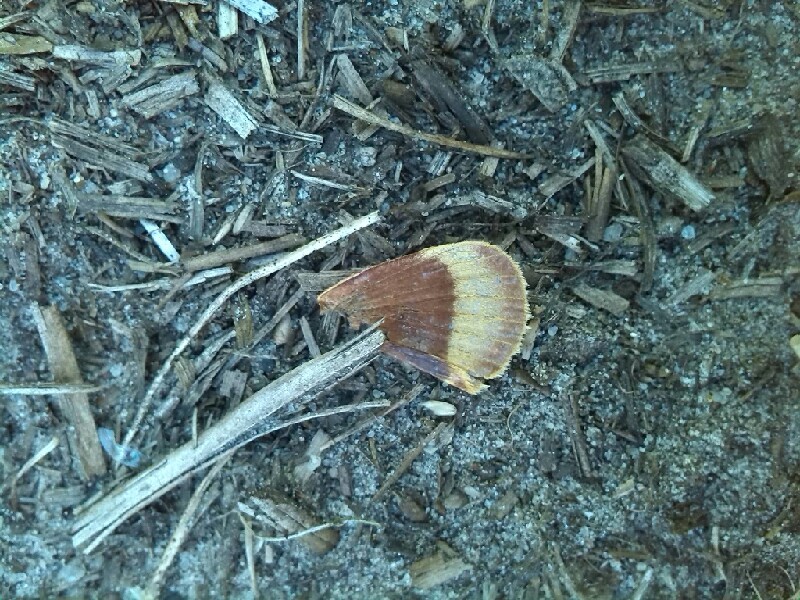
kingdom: Animalia
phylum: Arthropoda
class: Insecta
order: Lepidoptera
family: Lasiocampidae
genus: Lasiocampa
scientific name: Lasiocampa quercus
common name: Oak eggar
